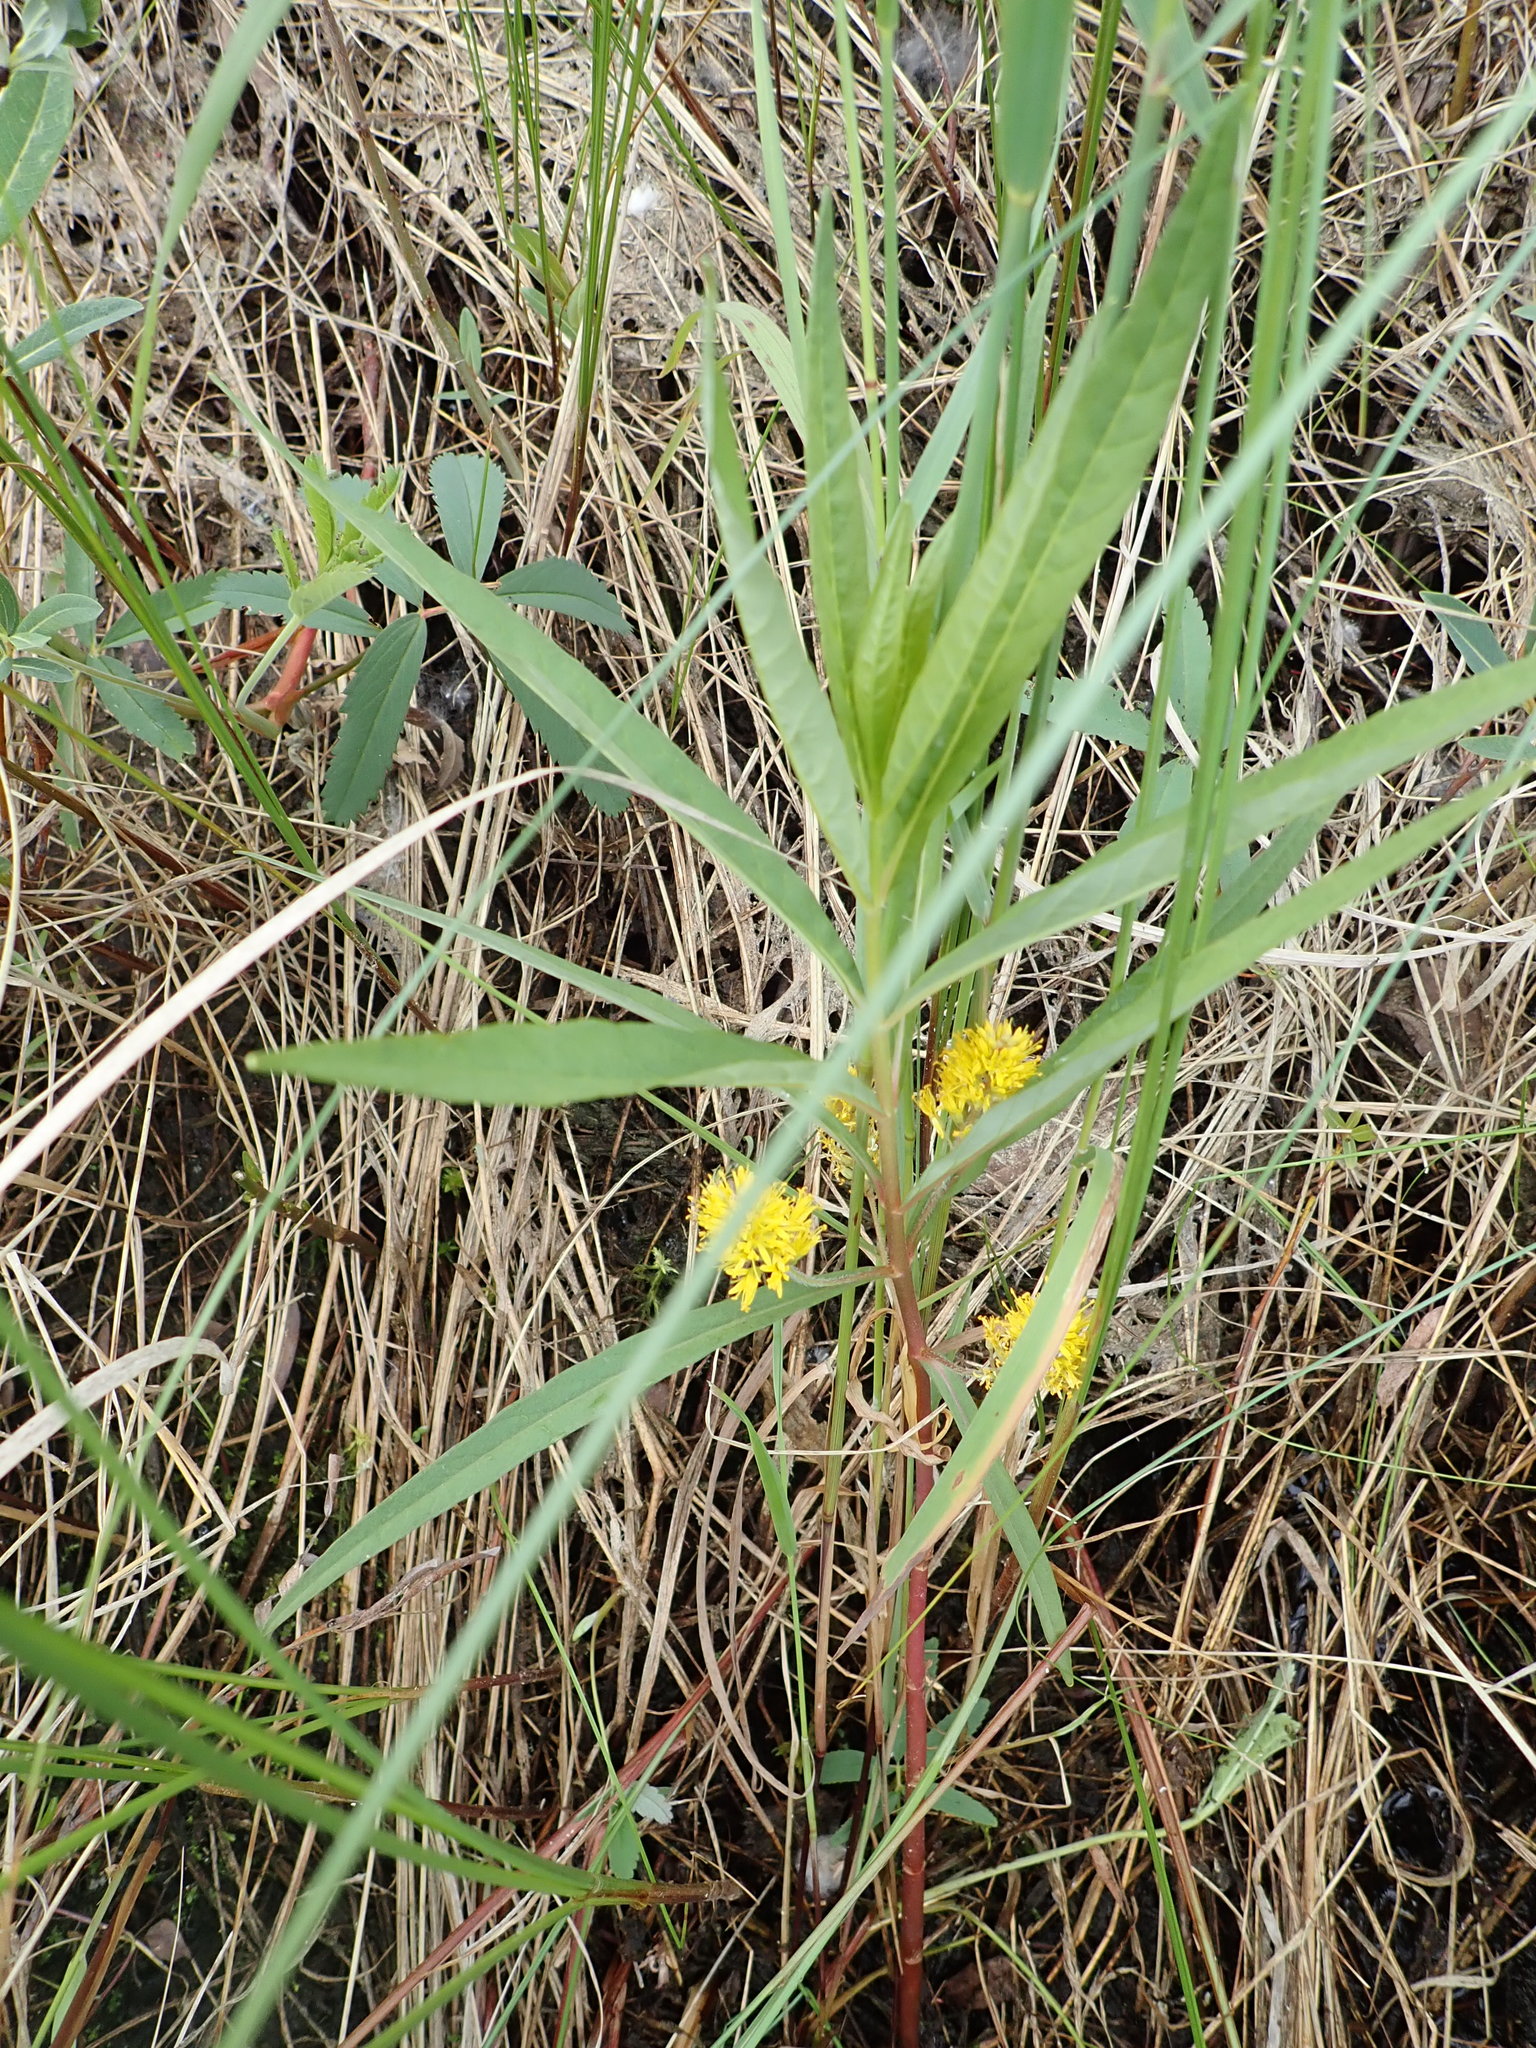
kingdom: Plantae
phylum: Tracheophyta
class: Magnoliopsida
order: Ericales
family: Primulaceae
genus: Lysimachia
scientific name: Lysimachia thyrsiflora
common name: Tufted loosestrife
